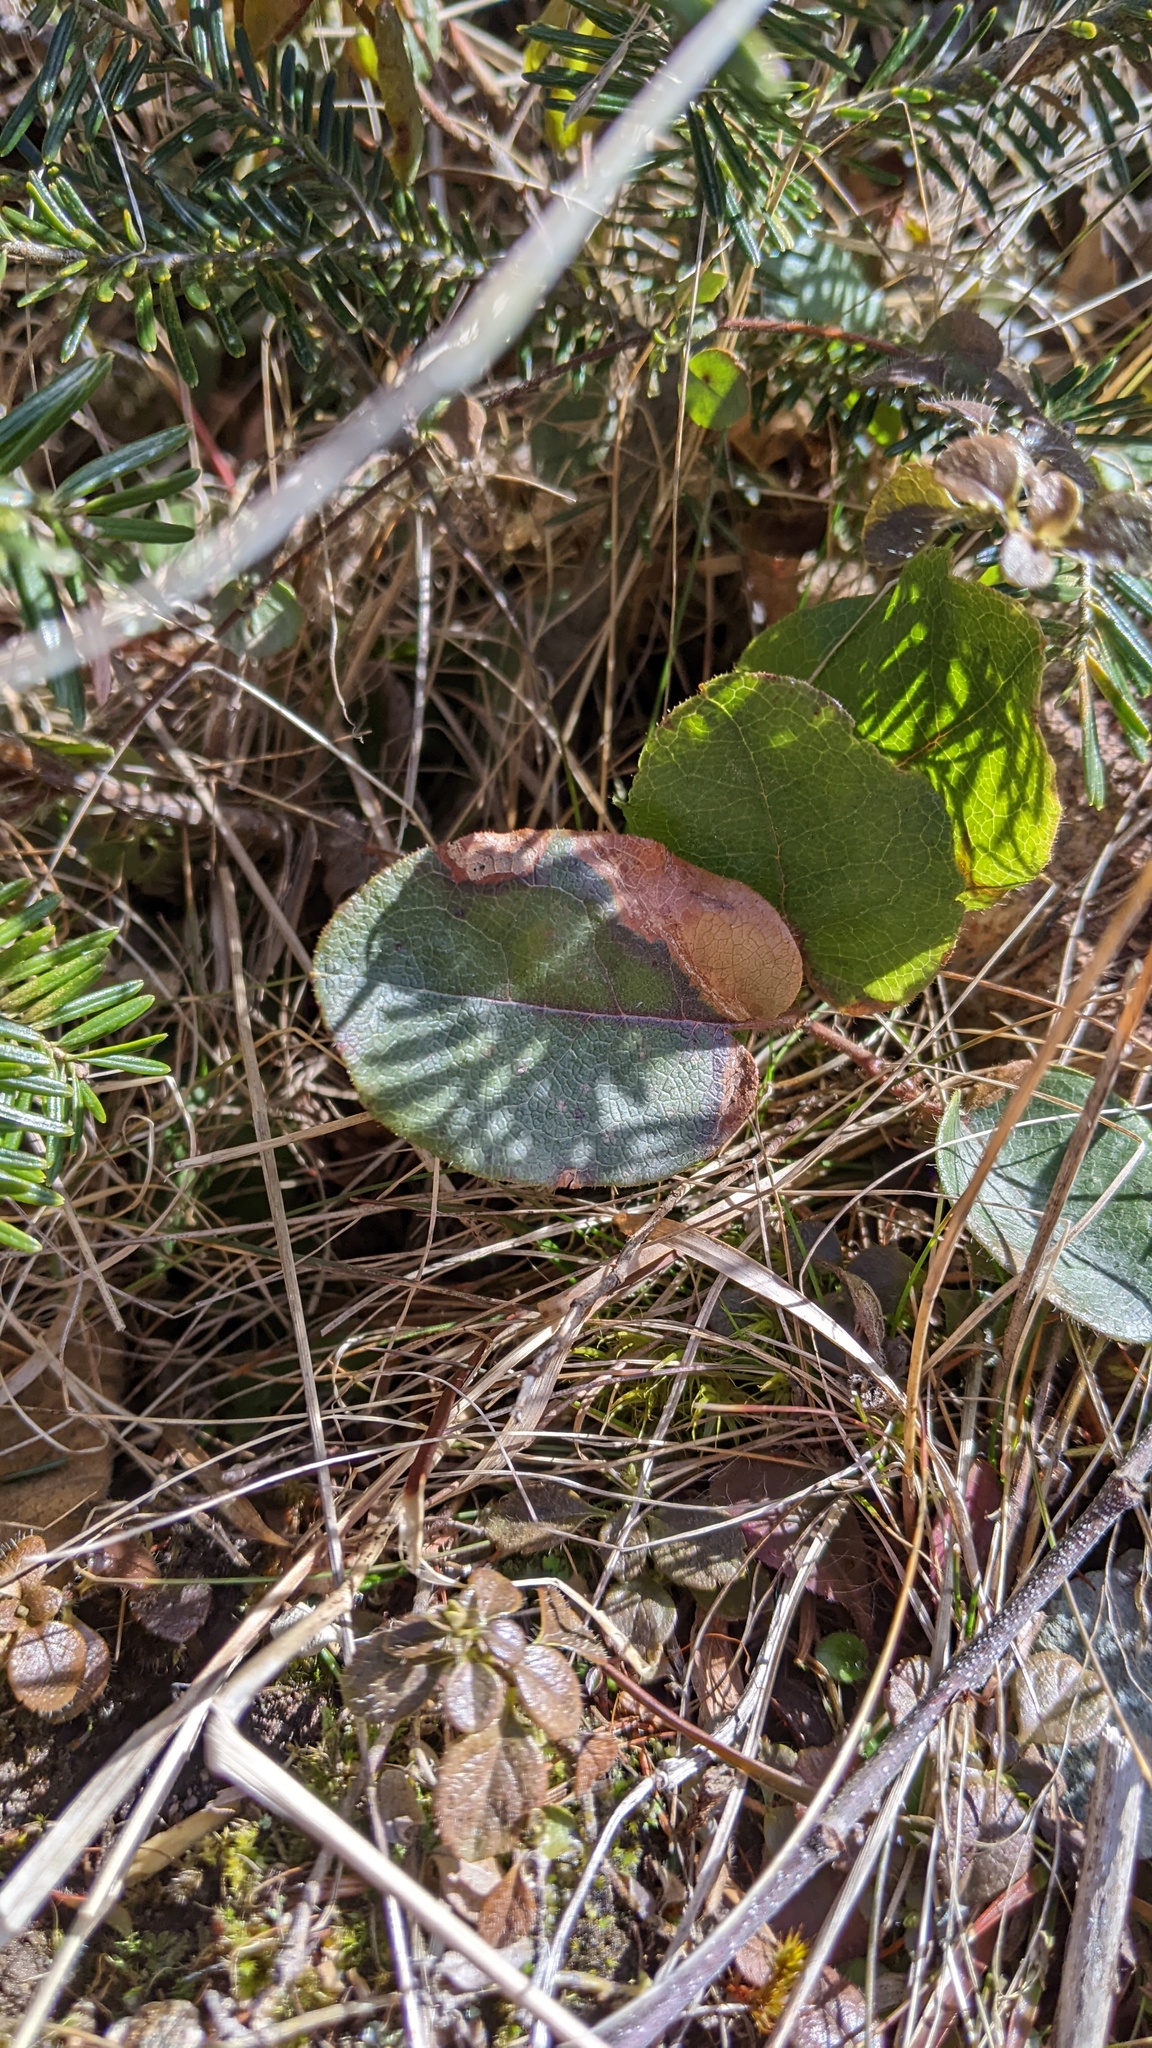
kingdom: Plantae
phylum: Tracheophyta
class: Magnoliopsida
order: Ericales
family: Ericaceae
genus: Epigaea
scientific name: Epigaea repens
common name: Gravelroot
